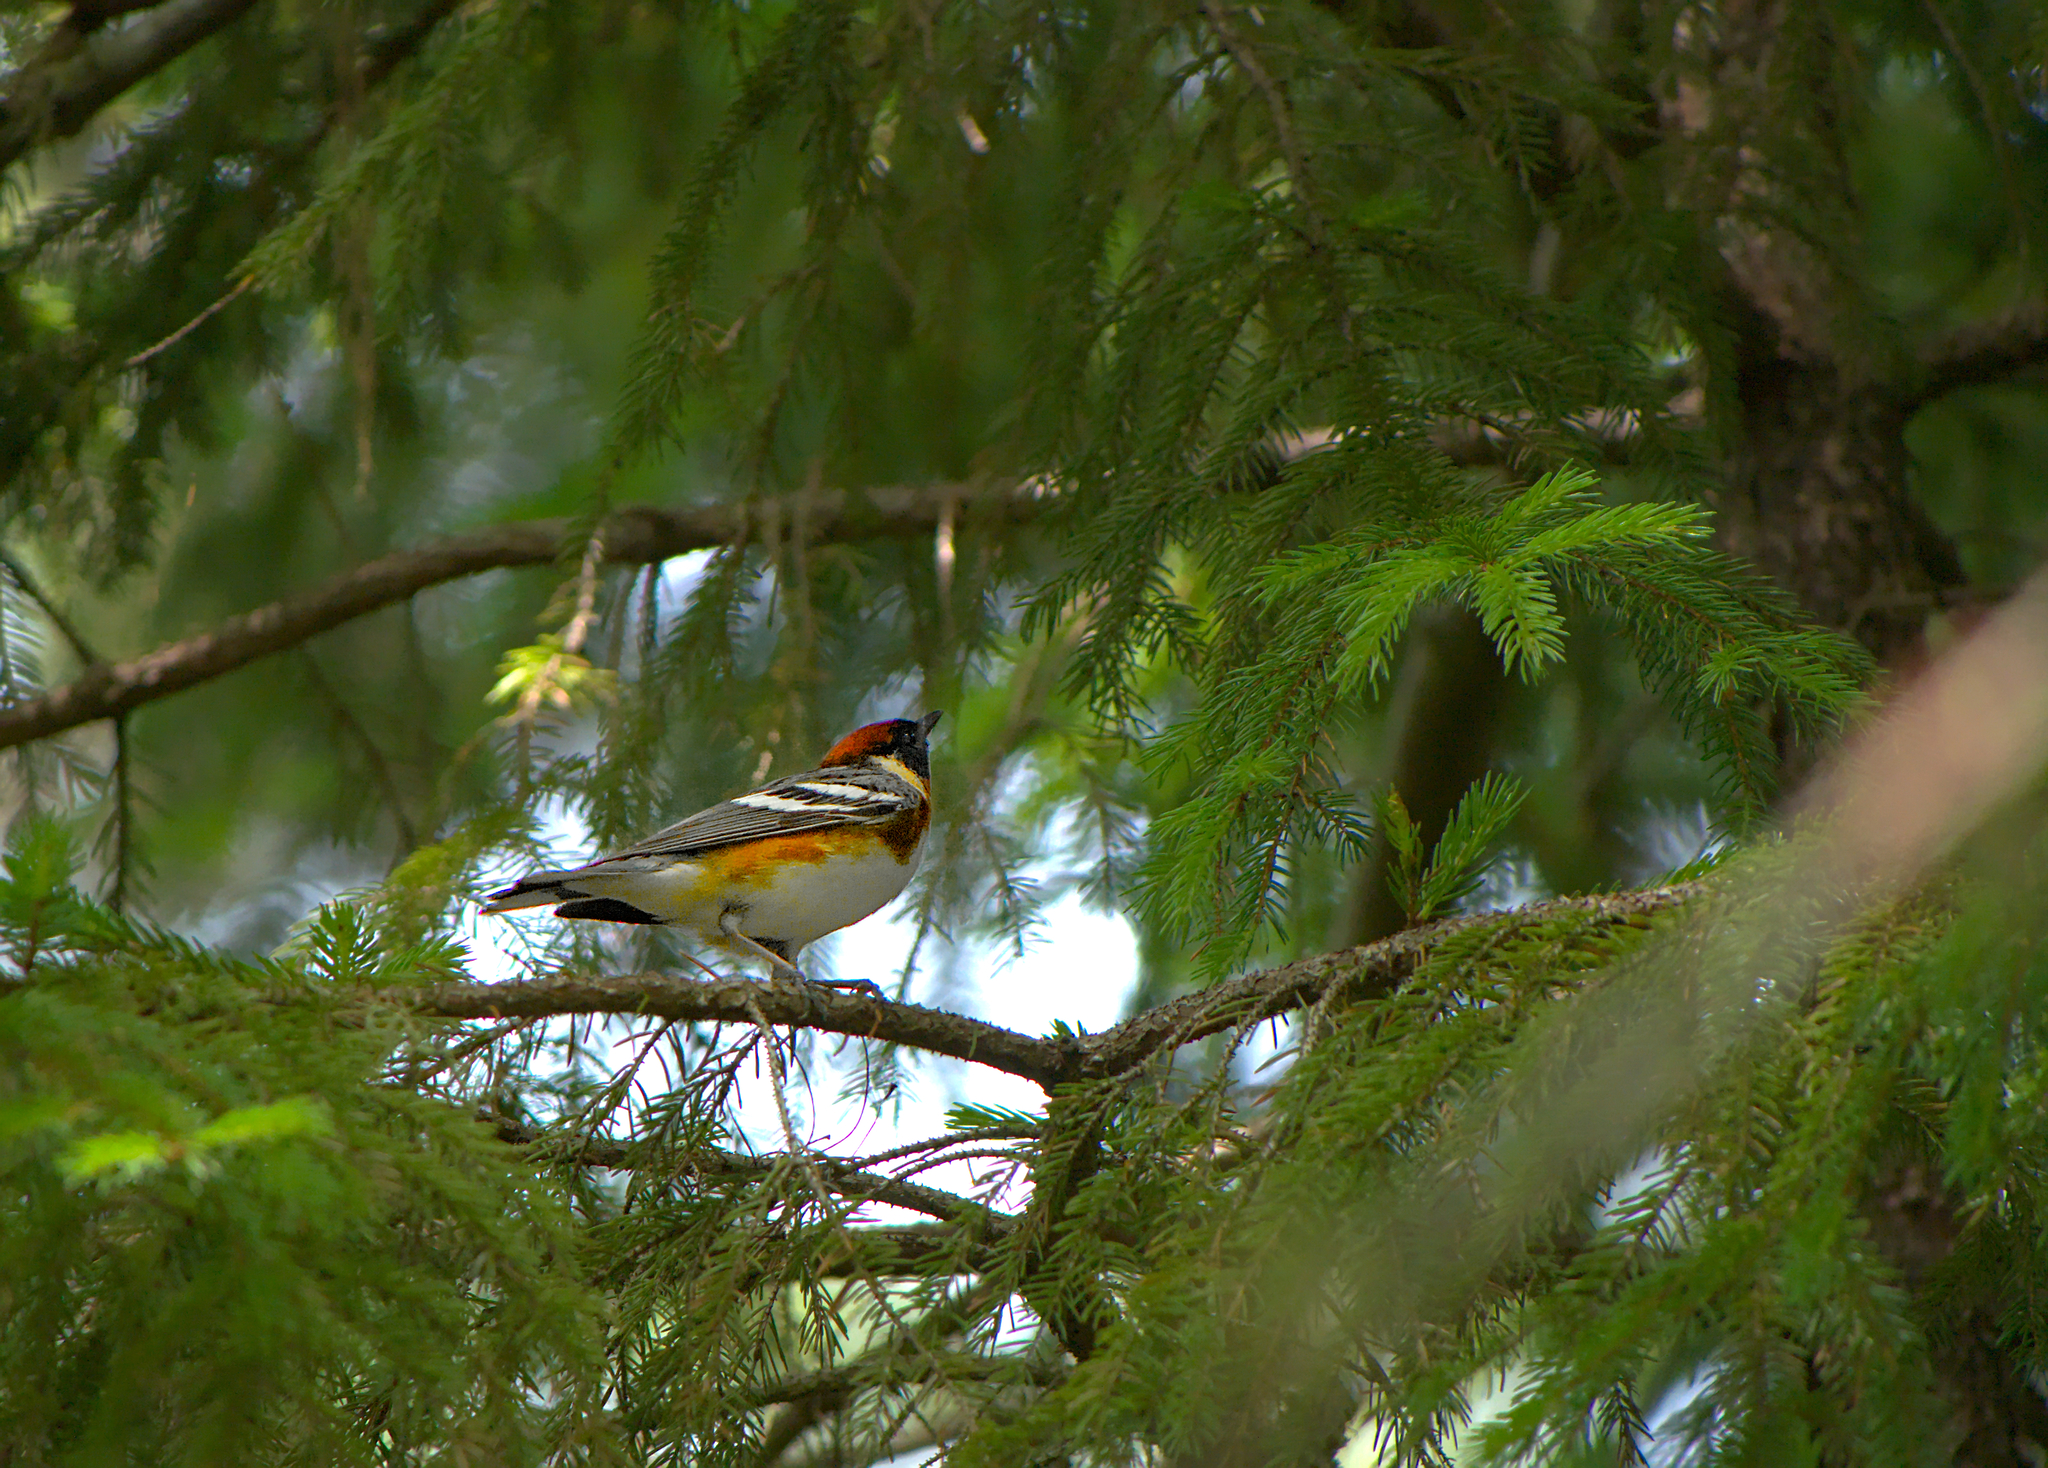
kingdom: Animalia
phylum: Chordata
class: Aves
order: Passeriformes
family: Parulidae
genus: Setophaga
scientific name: Setophaga castanea
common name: Bay-breasted warbler
